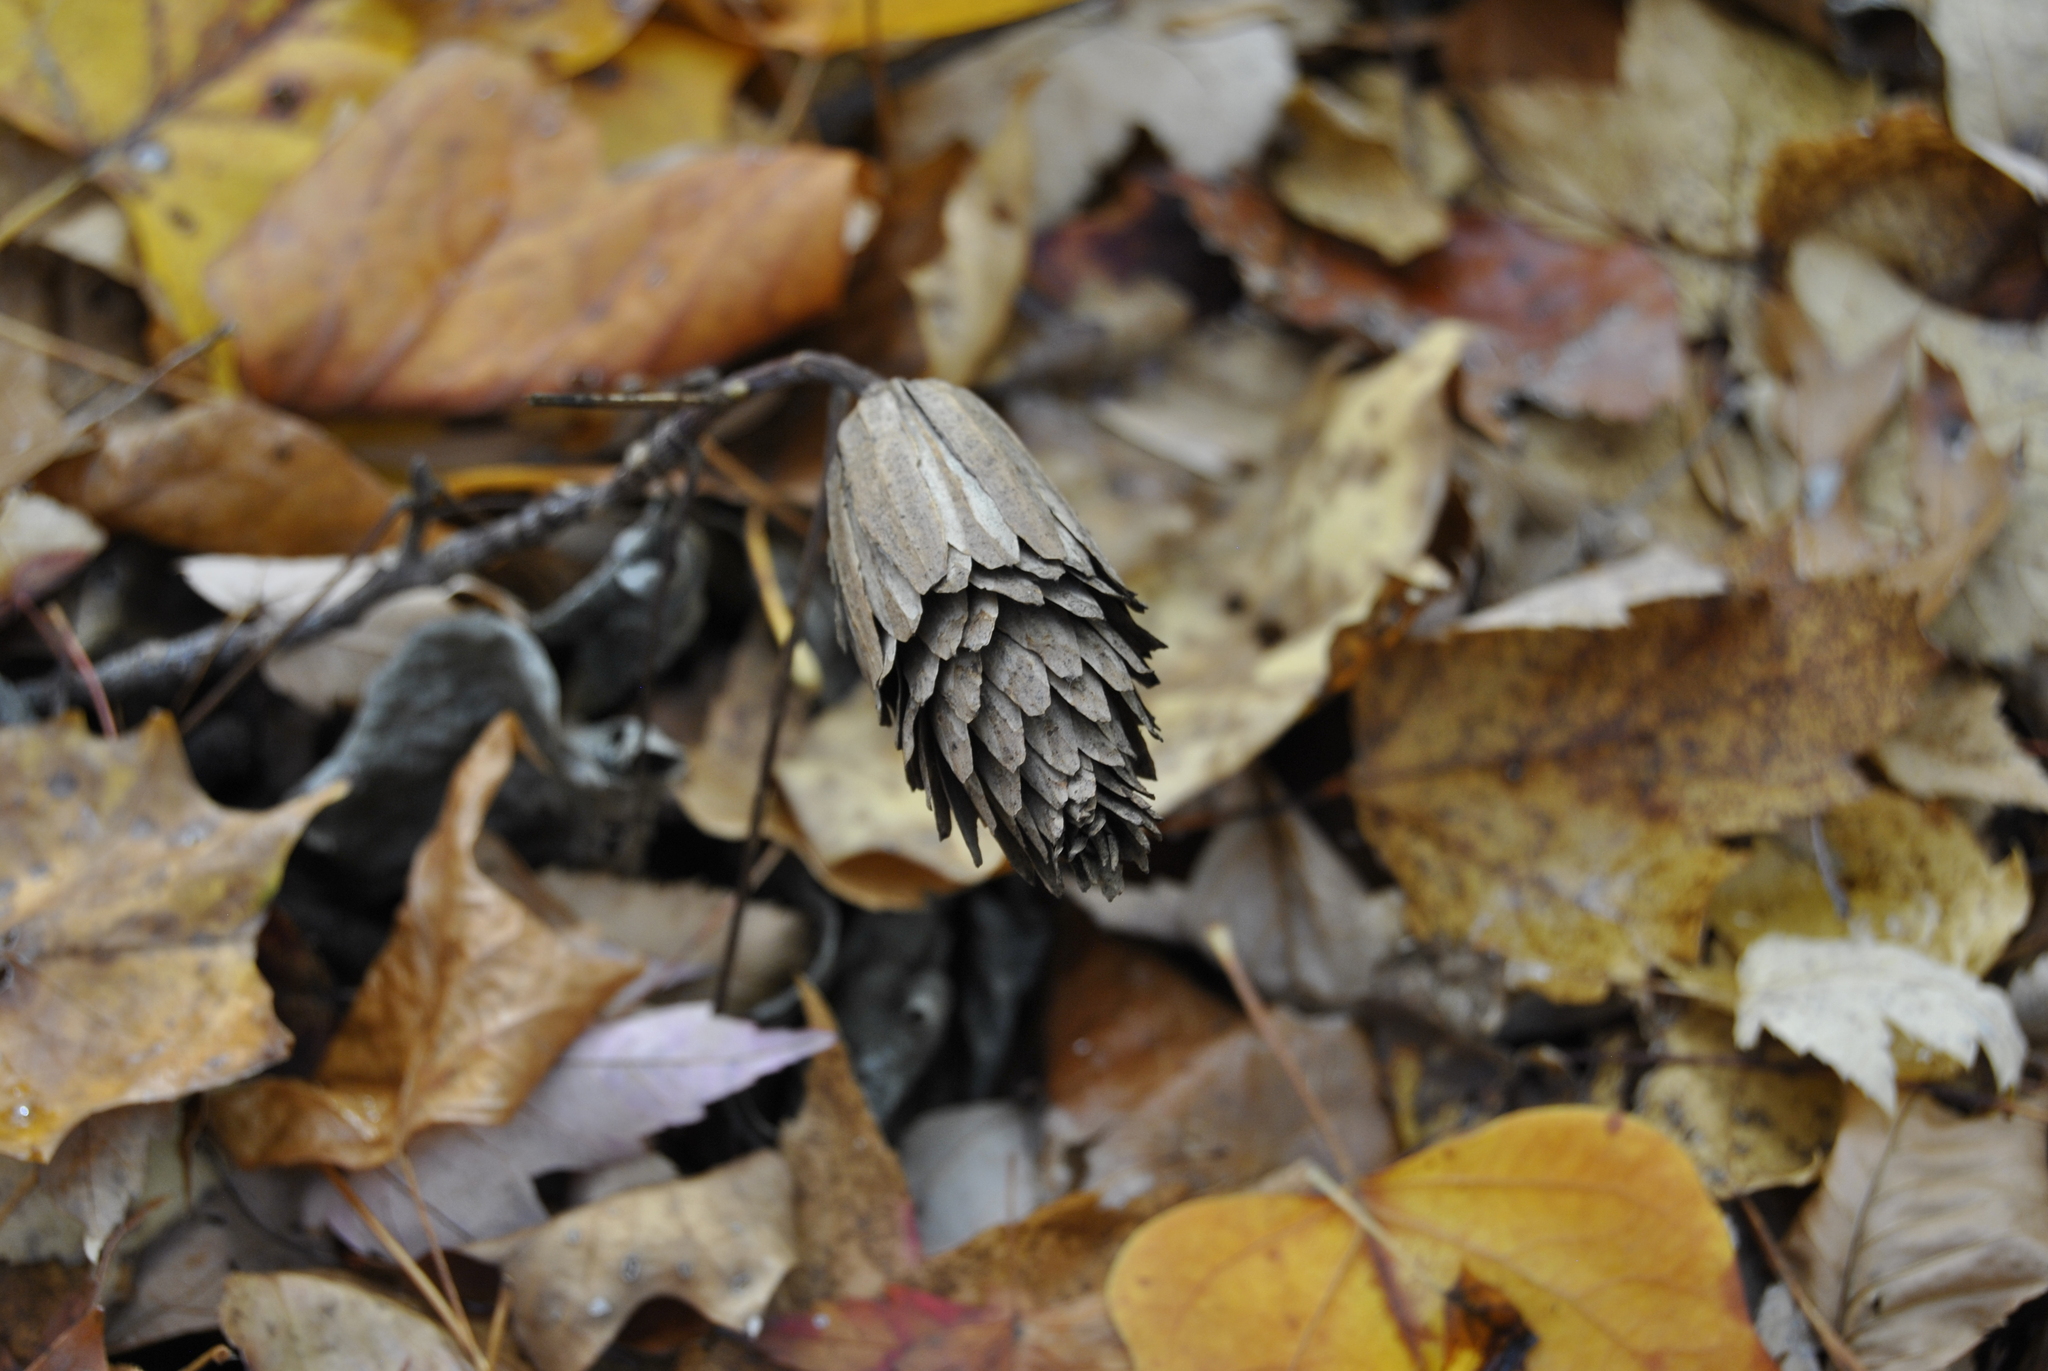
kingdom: Plantae
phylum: Tracheophyta
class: Magnoliopsida
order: Magnoliales
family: Magnoliaceae
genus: Liriodendron
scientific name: Liriodendron tulipifera
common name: Tulip tree
